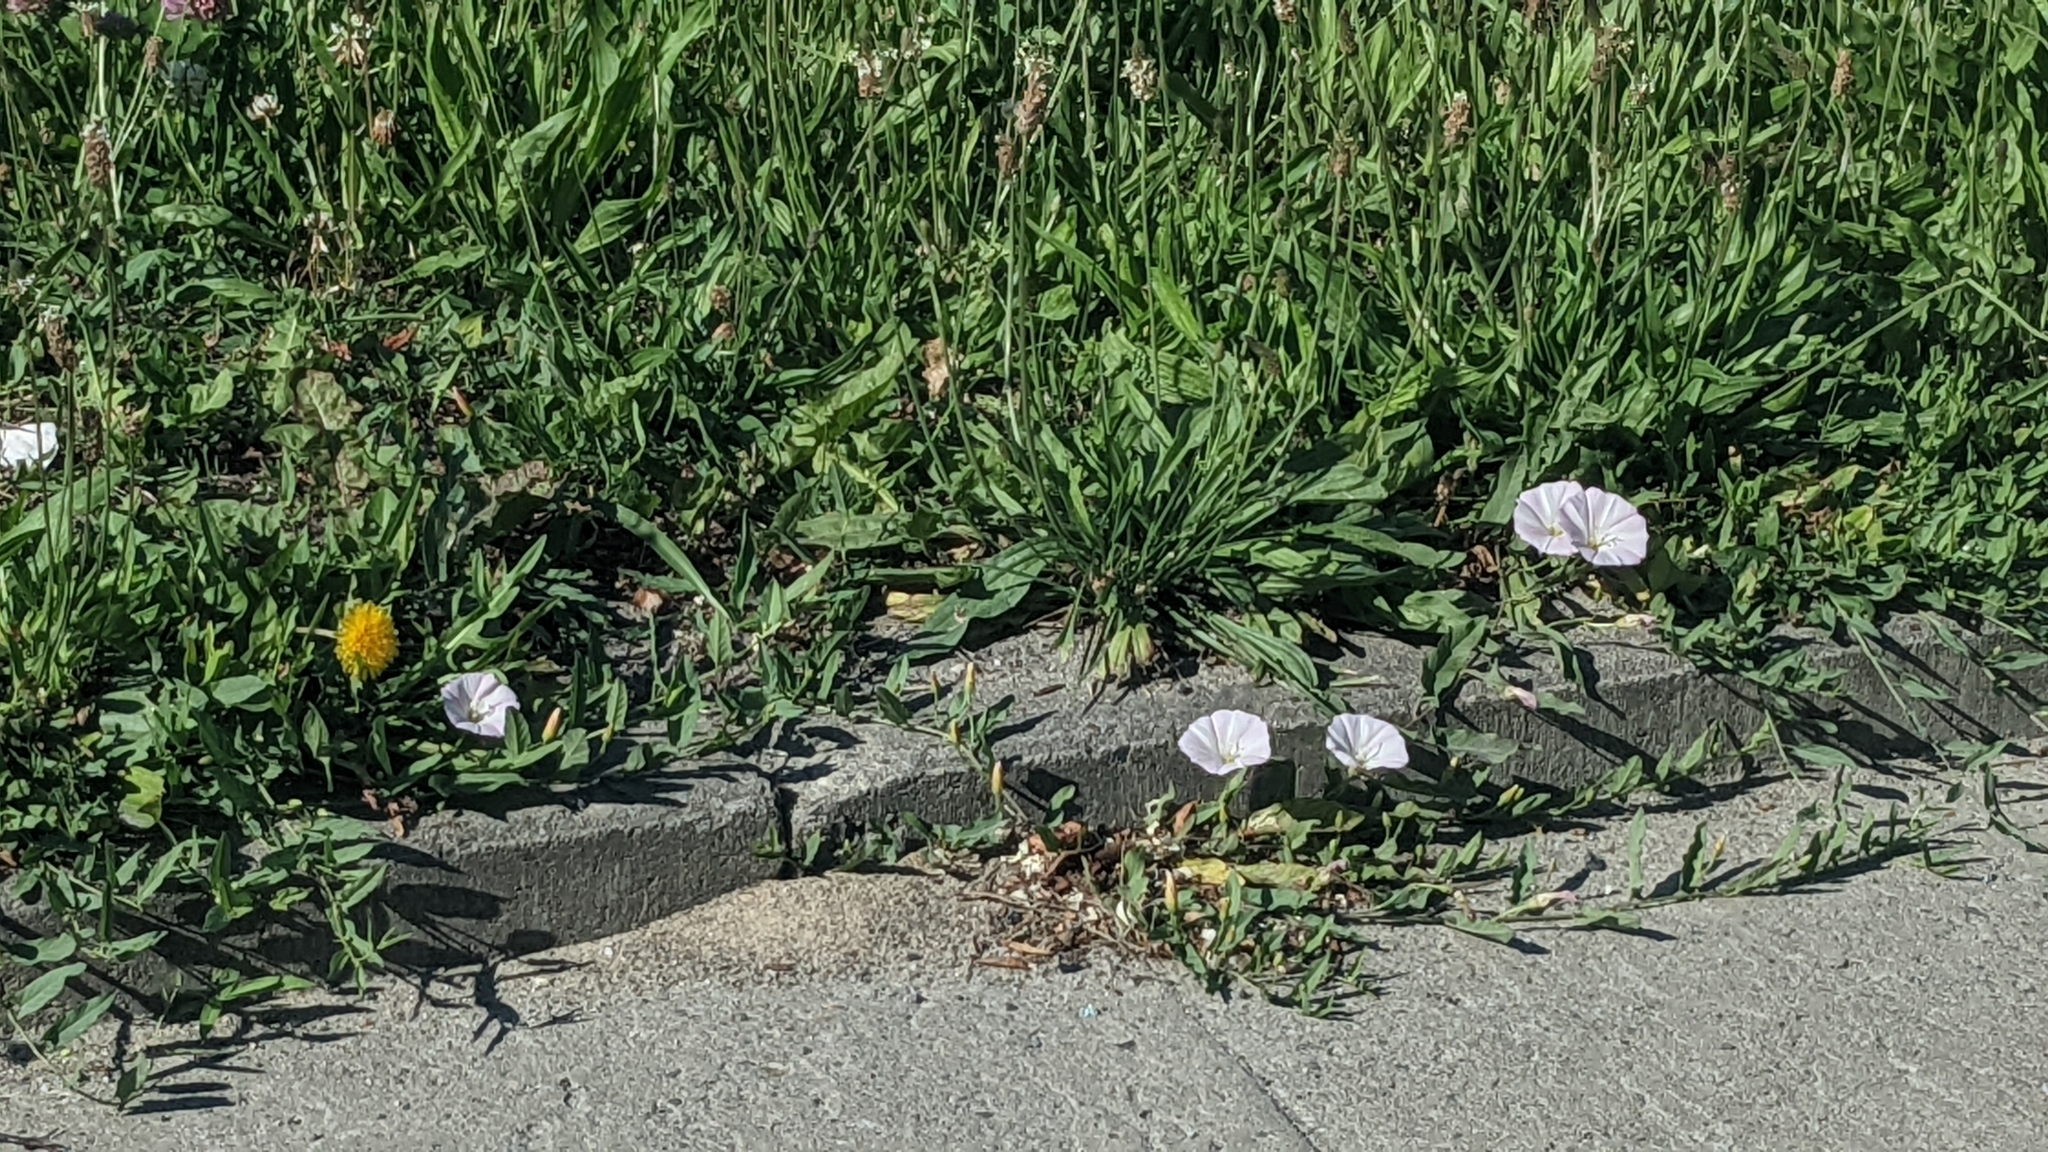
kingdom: Plantae
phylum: Tracheophyta
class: Magnoliopsida
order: Solanales
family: Convolvulaceae
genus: Convolvulus
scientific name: Convolvulus arvensis
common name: Field bindweed
